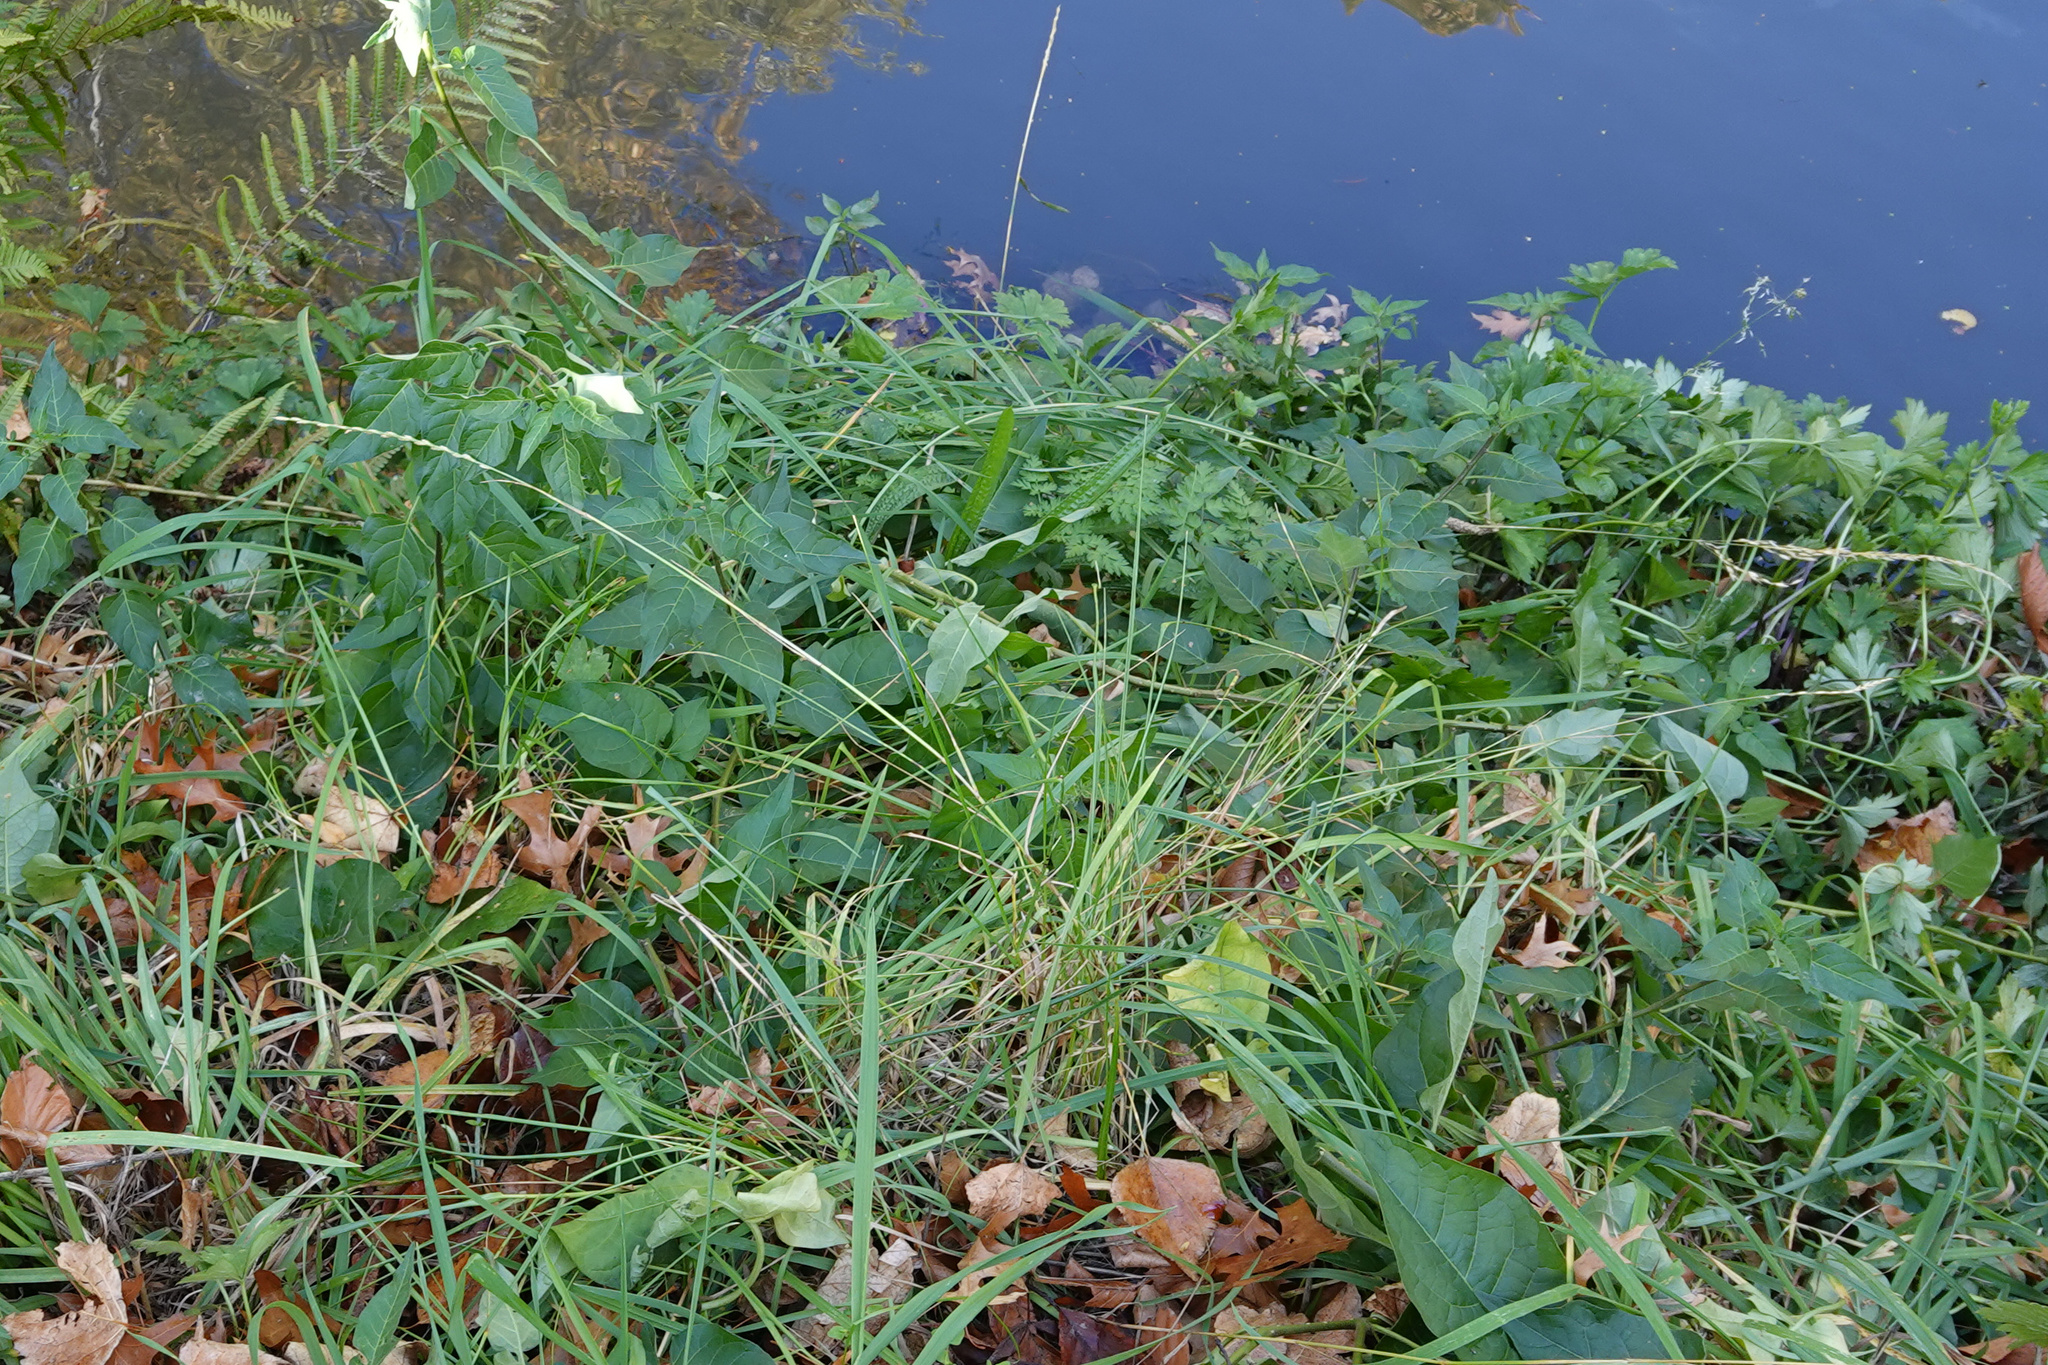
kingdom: Plantae
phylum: Tracheophyta
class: Magnoliopsida
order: Solanales
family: Solanaceae
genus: Solanum
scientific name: Solanum dulcamara
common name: Climbing nightshade
